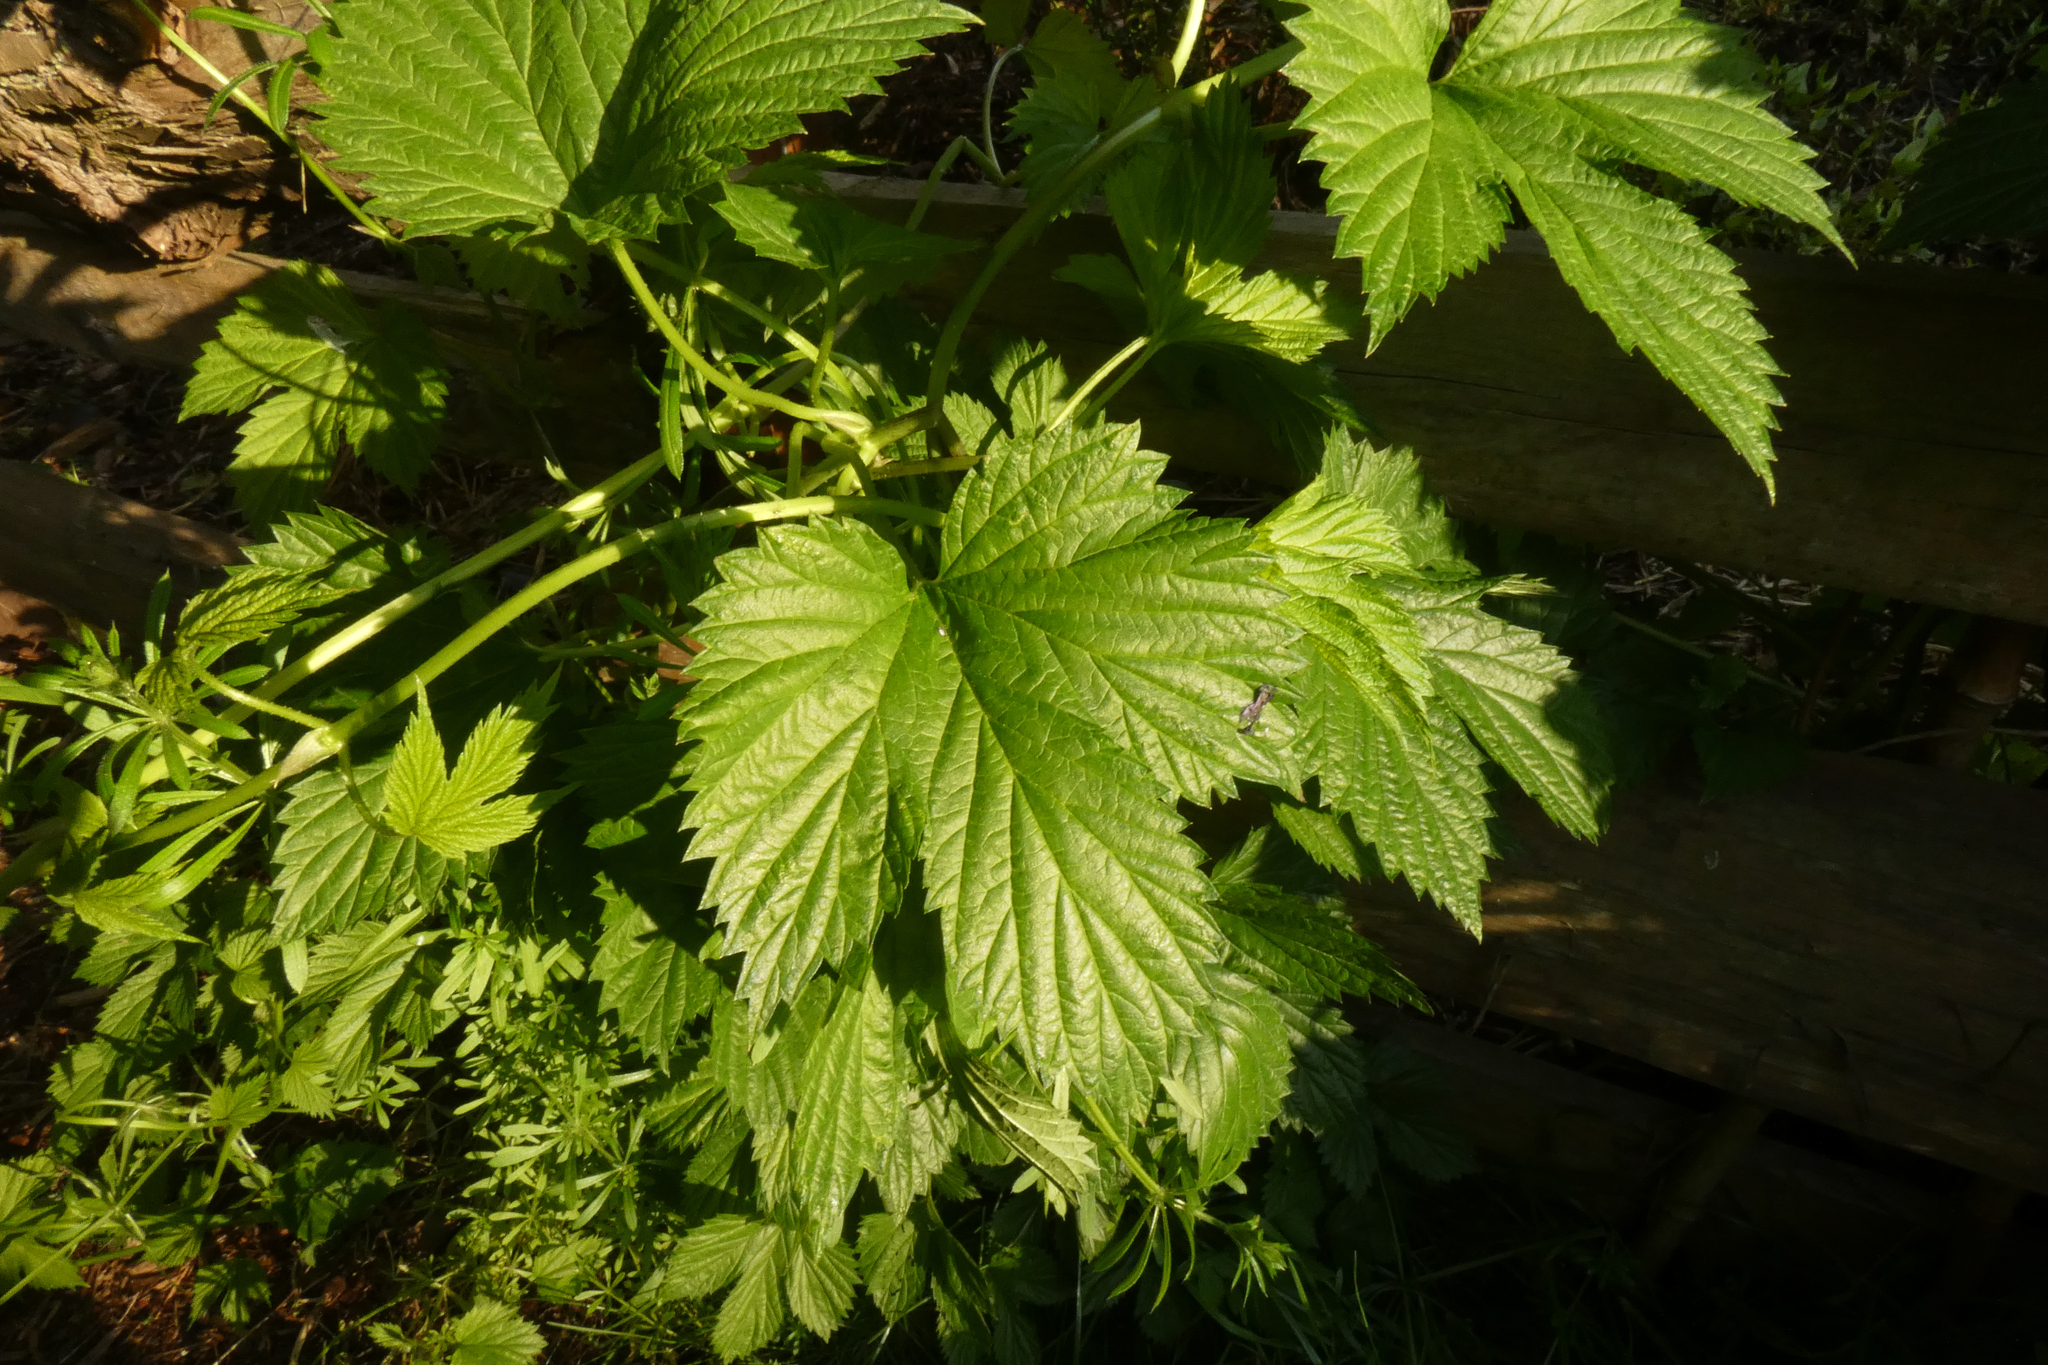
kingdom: Plantae
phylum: Tracheophyta
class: Magnoliopsida
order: Rosales
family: Cannabaceae
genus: Humulus
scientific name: Humulus lupulus
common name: Hop
